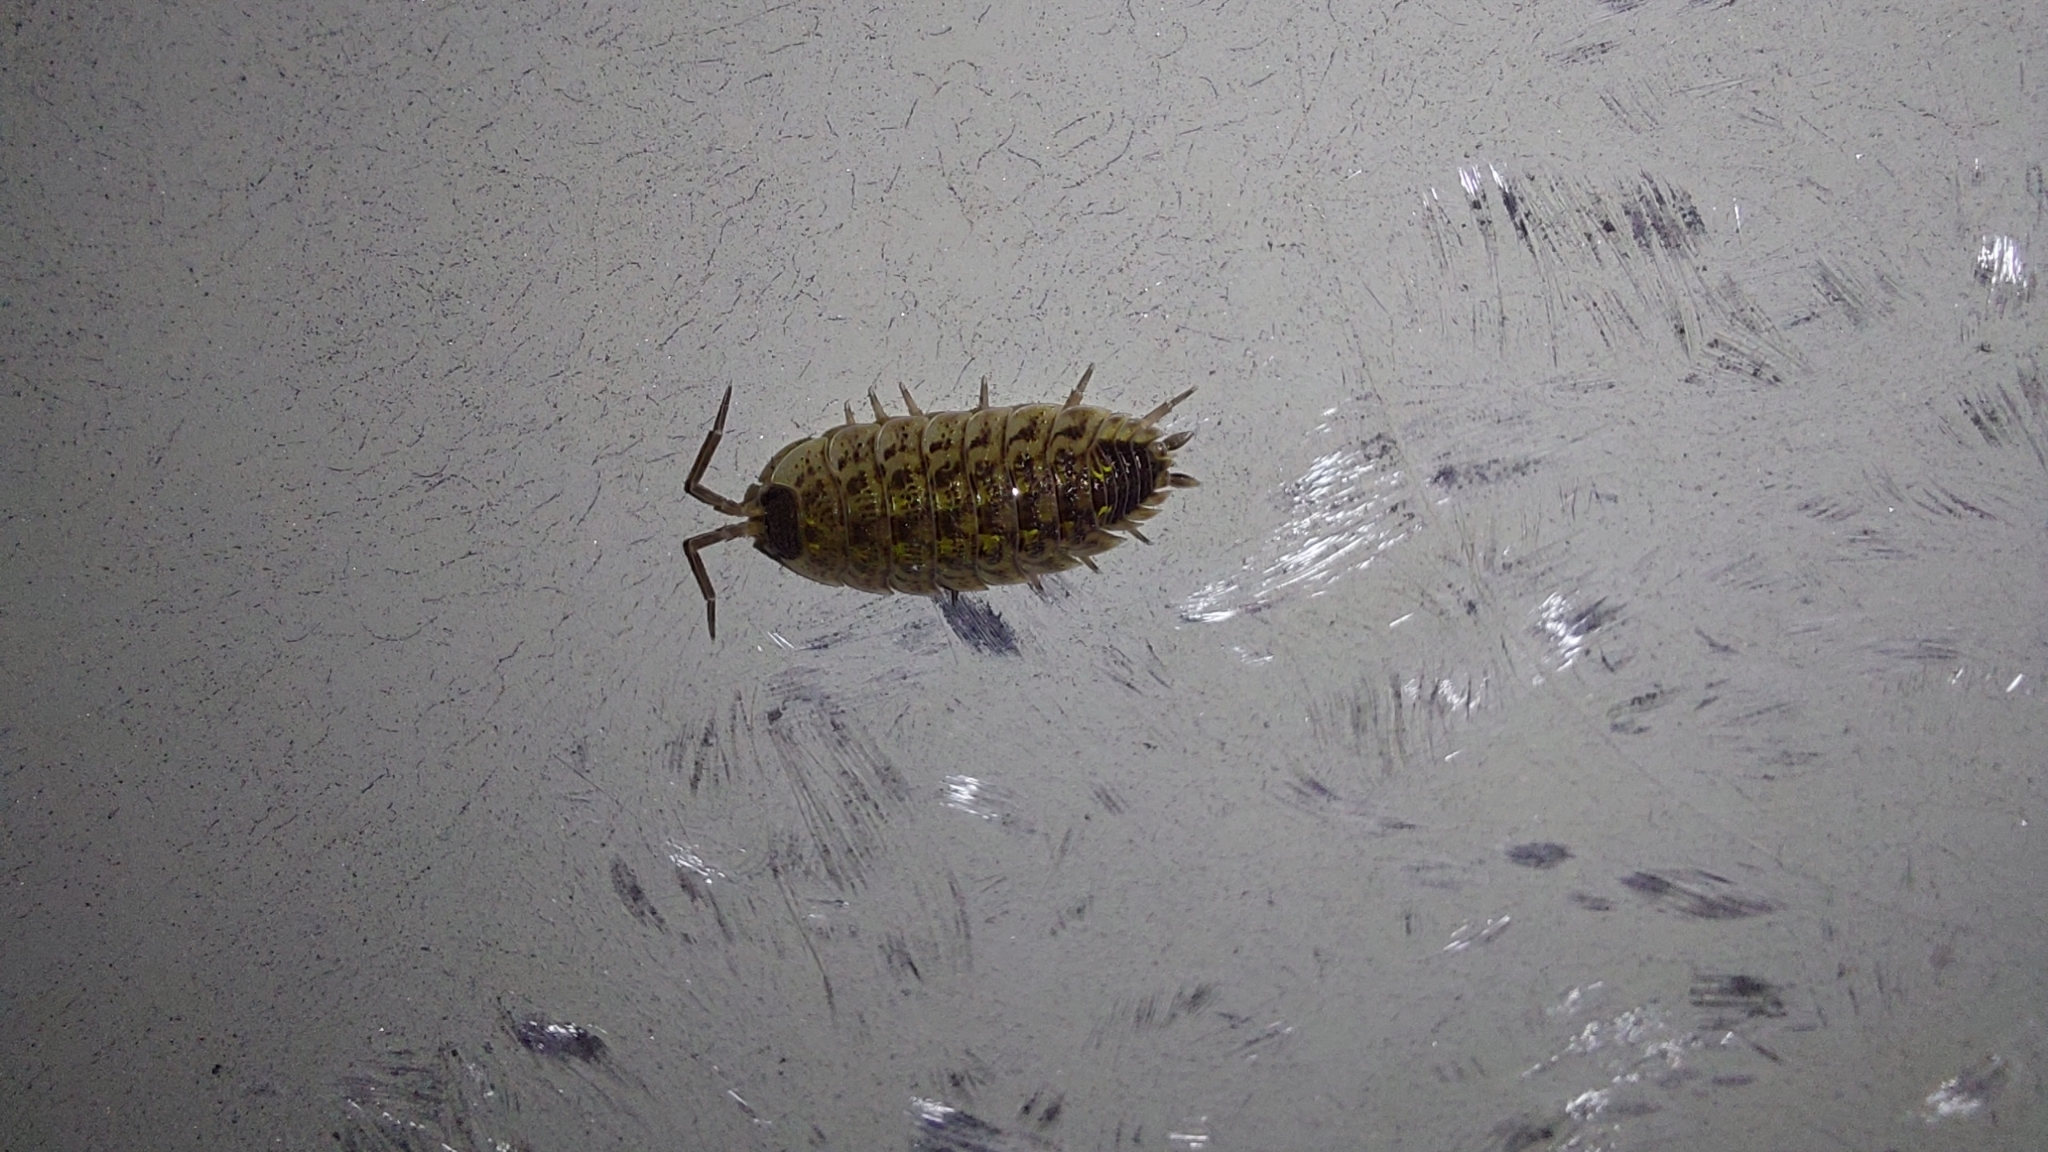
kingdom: Animalia
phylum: Arthropoda
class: Malacostraca
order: Isopoda
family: Porcellionidae
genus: Porcellio
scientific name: Porcellio spinicornis
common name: Painted woodlouse
